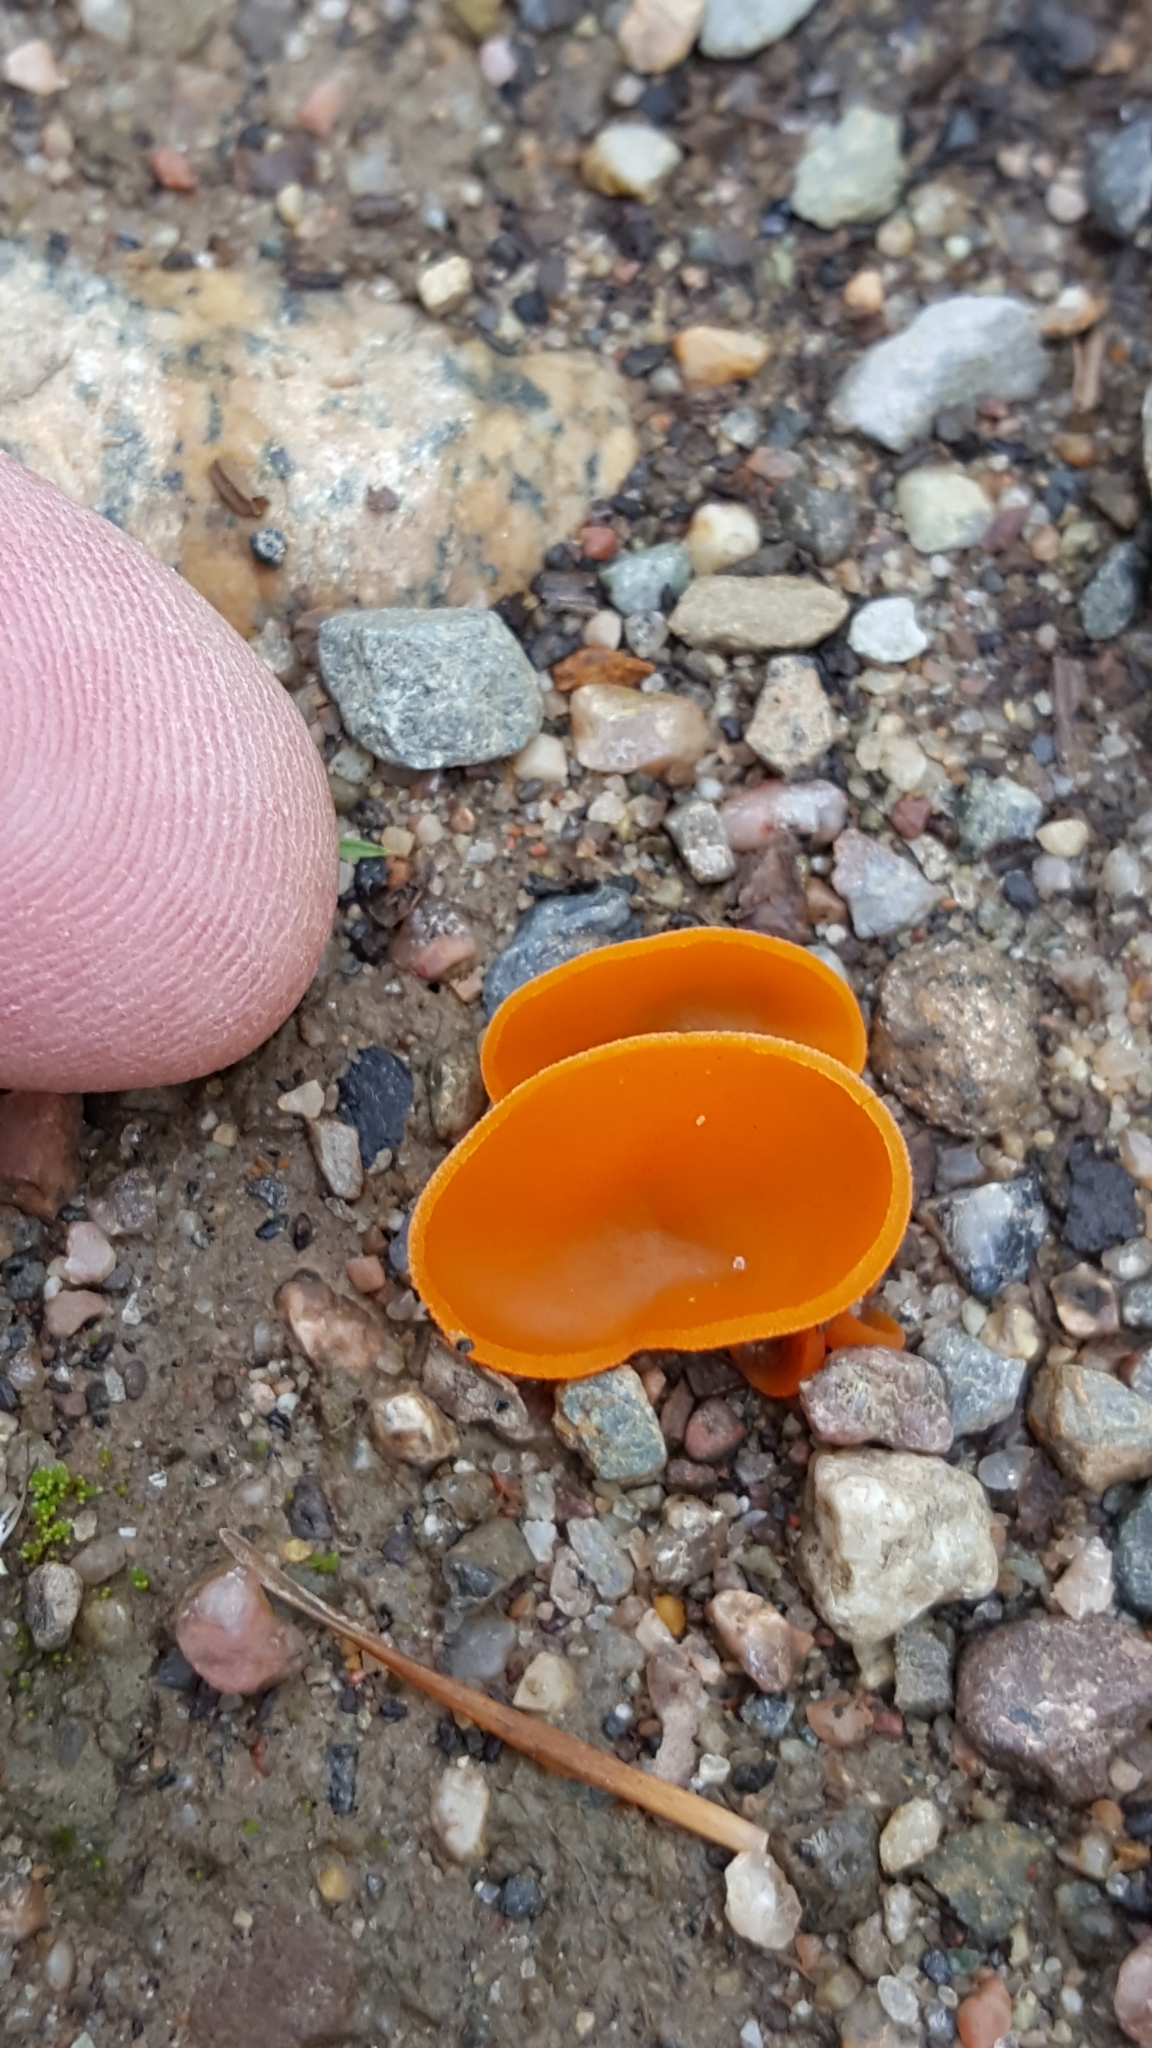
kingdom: Fungi
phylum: Ascomycota
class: Pezizomycetes
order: Pezizales
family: Pyronemataceae
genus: Aleuria
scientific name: Aleuria aurantia
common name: Orange peel fungus
